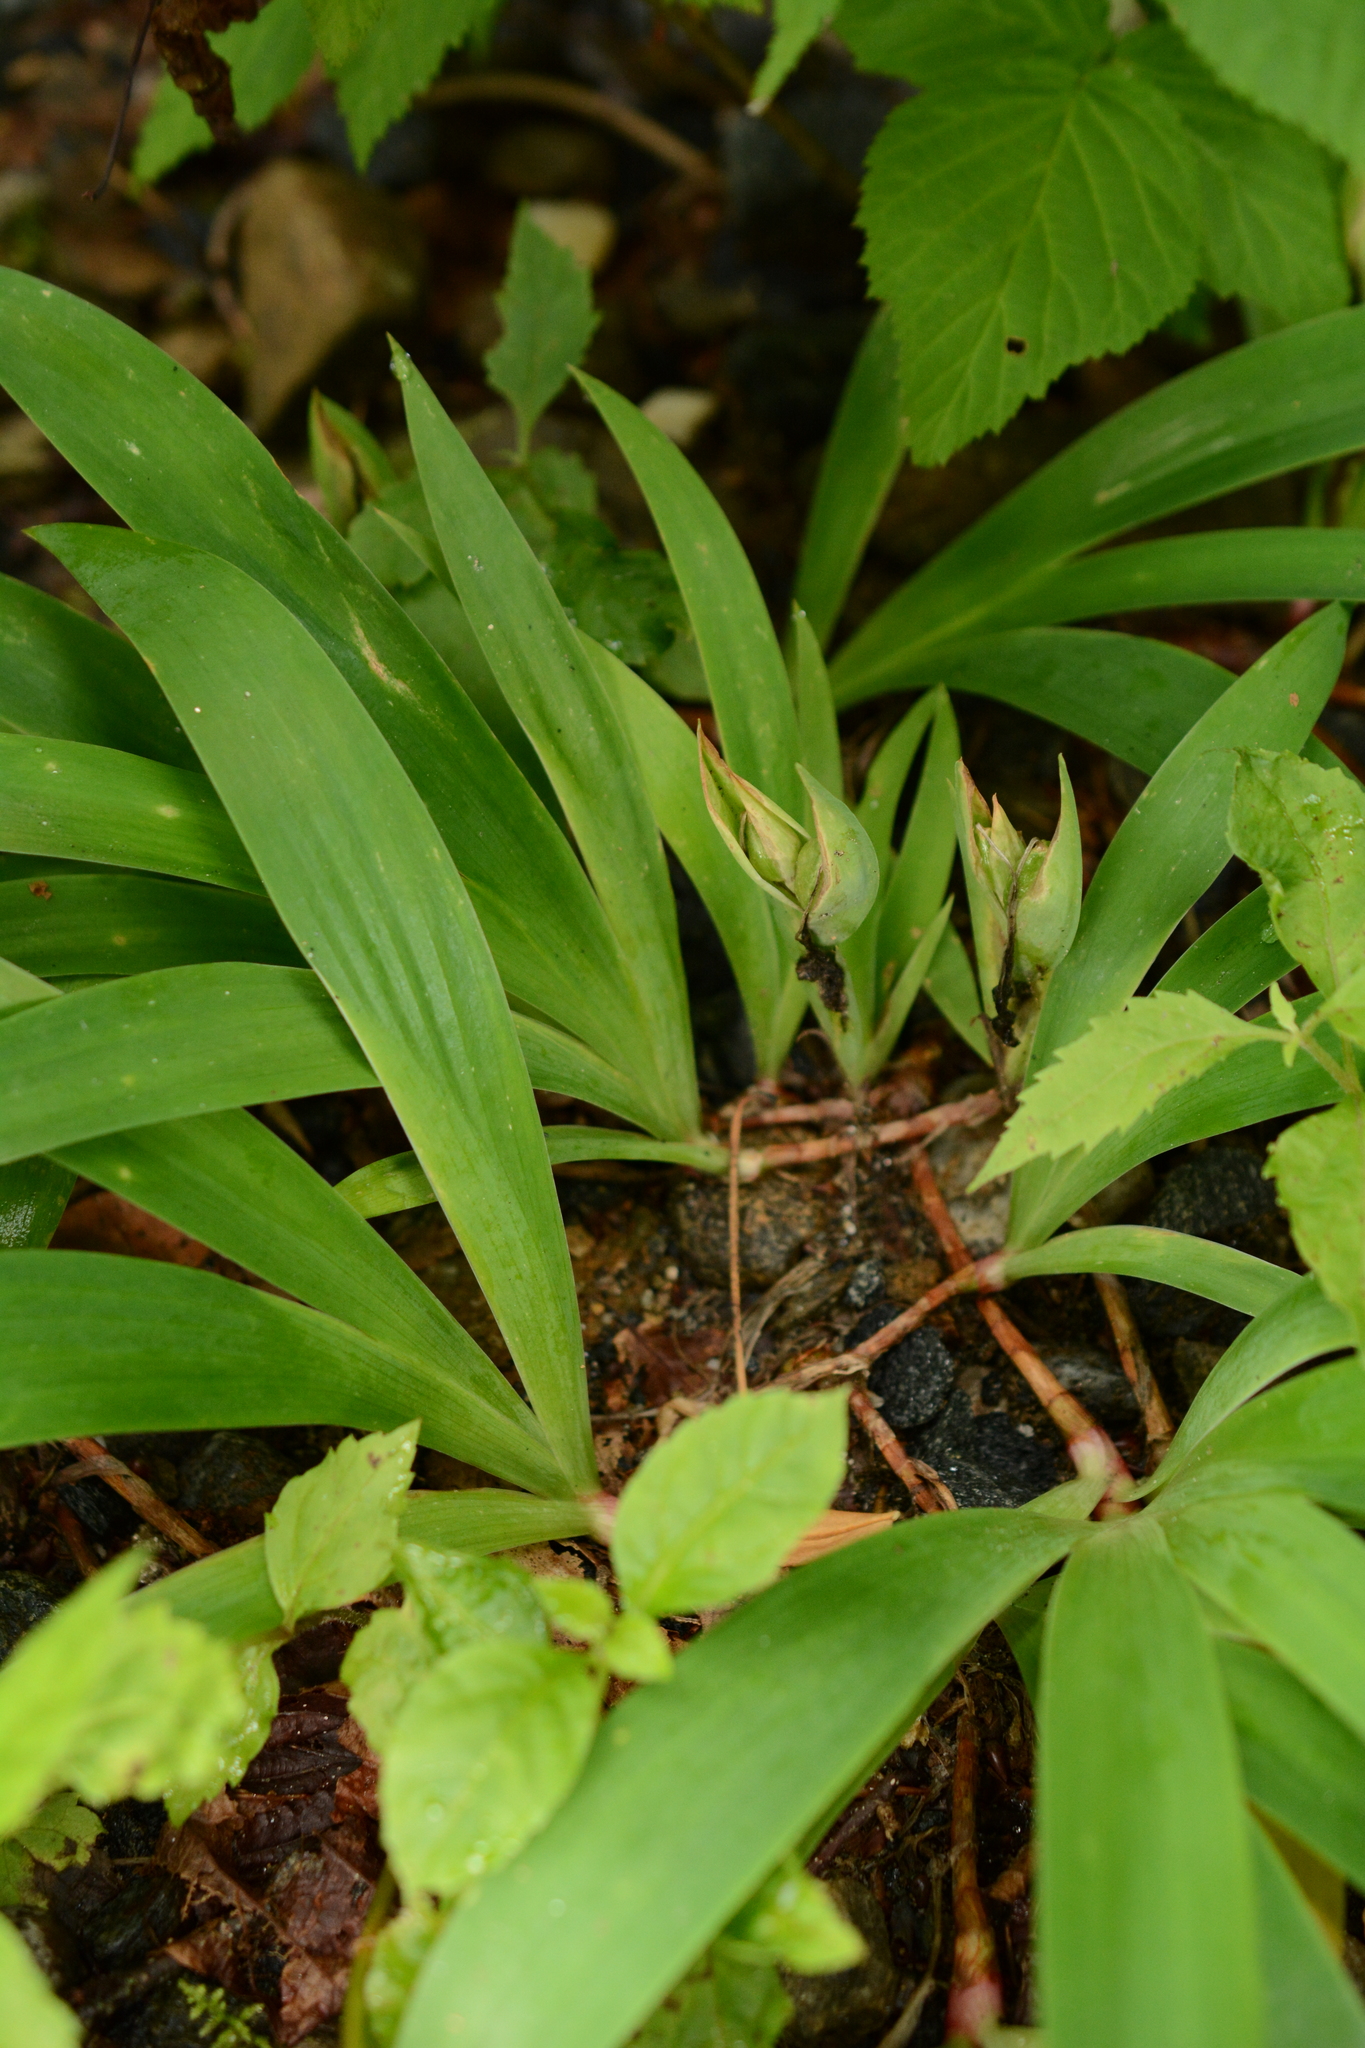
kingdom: Plantae
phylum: Tracheophyta
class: Liliopsida
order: Asparagales
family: Iridaceae
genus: Iris
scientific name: Iris cristata
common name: Crested iris
